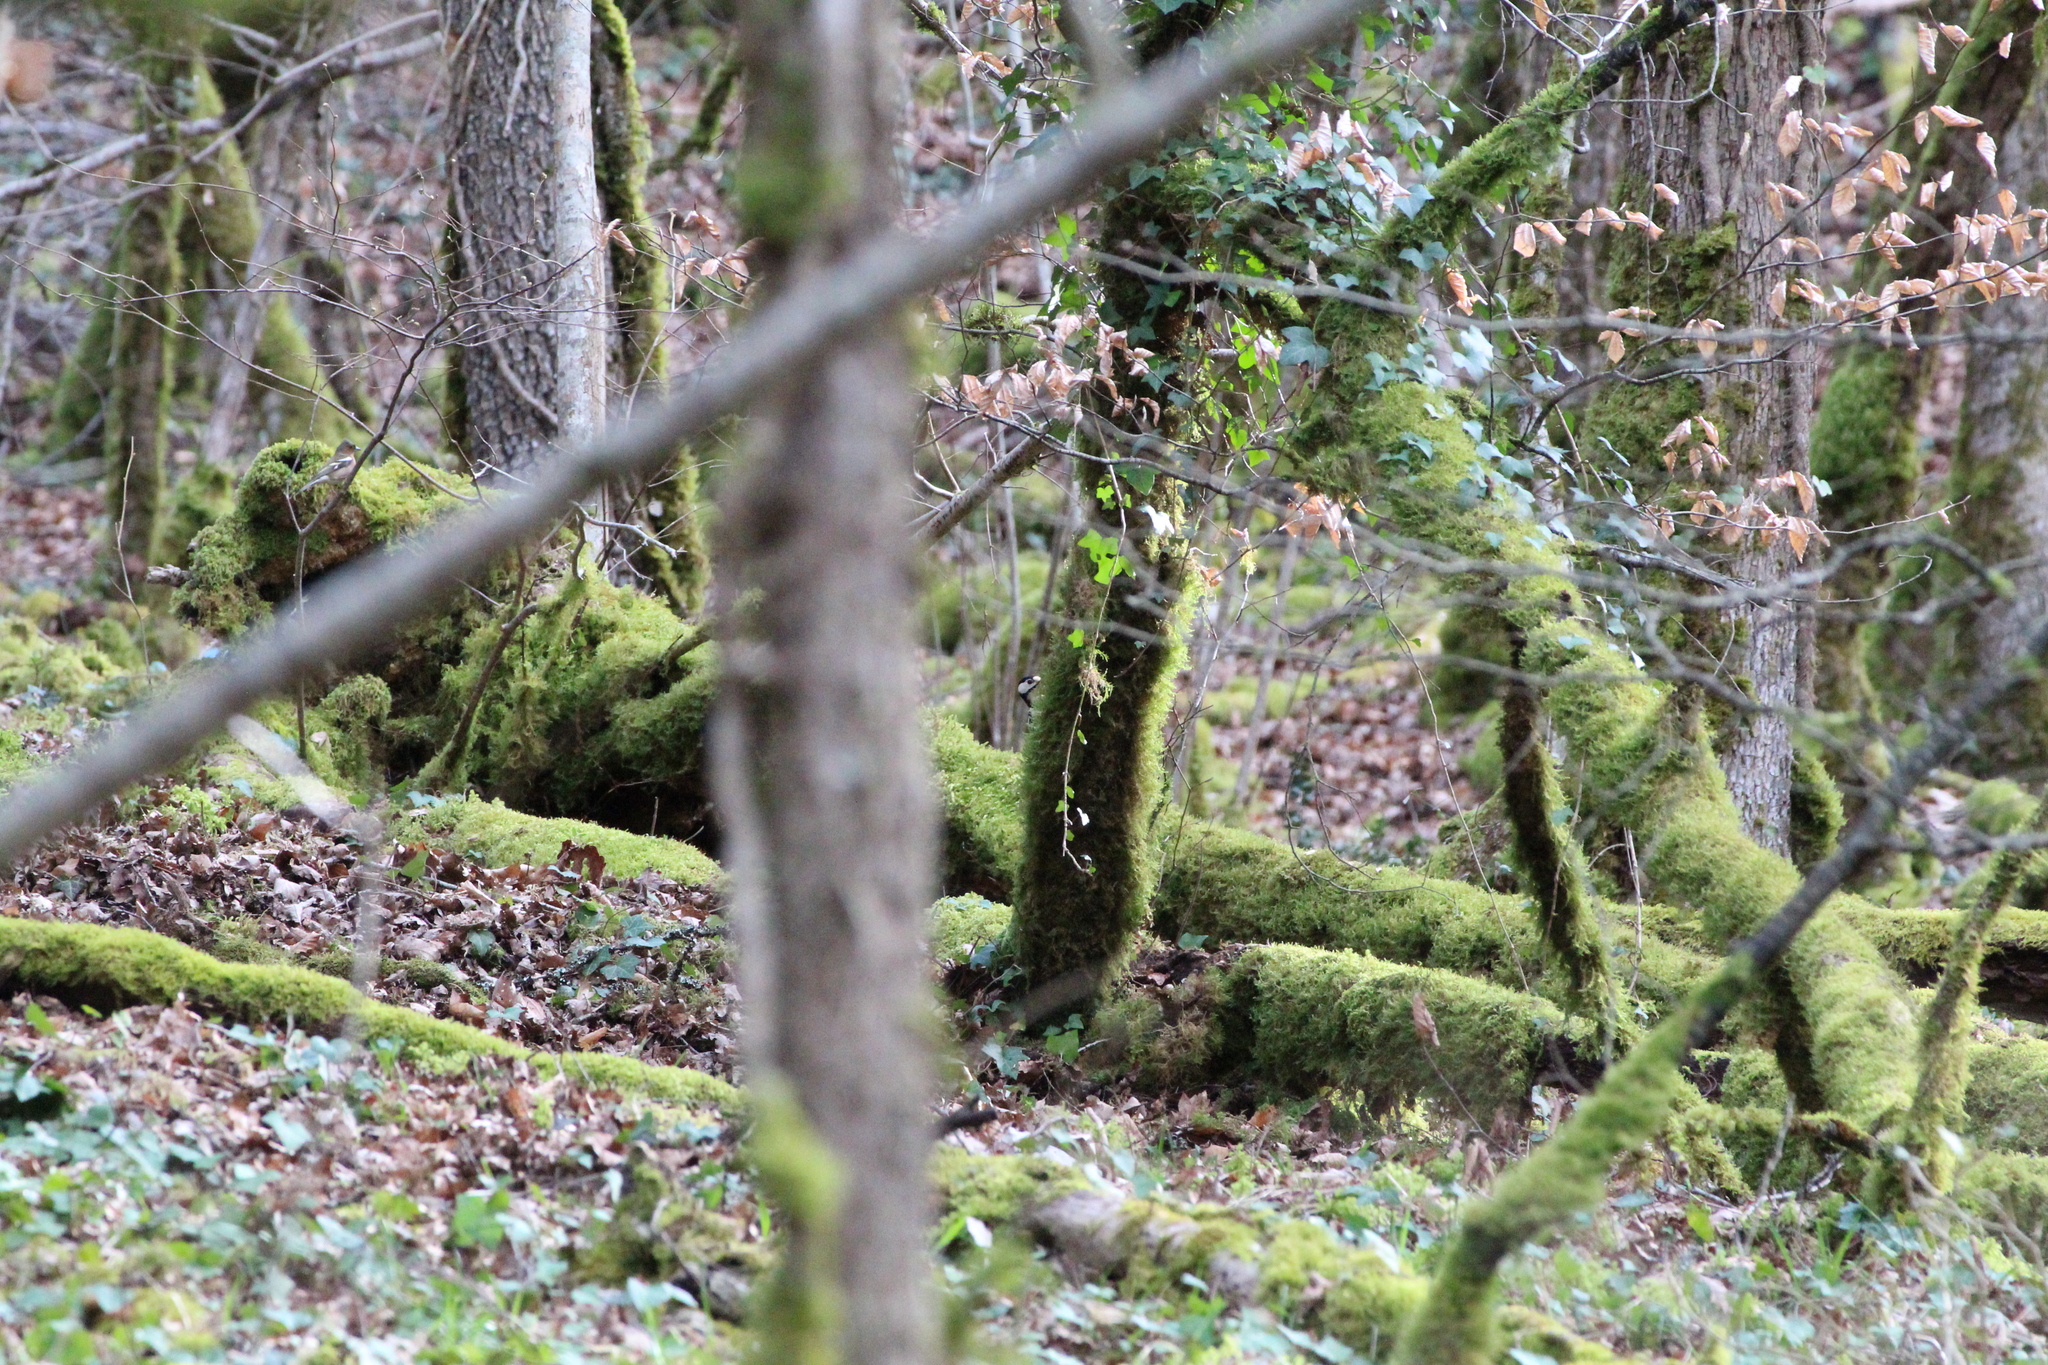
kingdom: Animalia
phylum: Chordata
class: Aves
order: Piciformes
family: Picidae
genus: Dendrocopos
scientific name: Dendrocopos major
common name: Great spotted woodpecker
